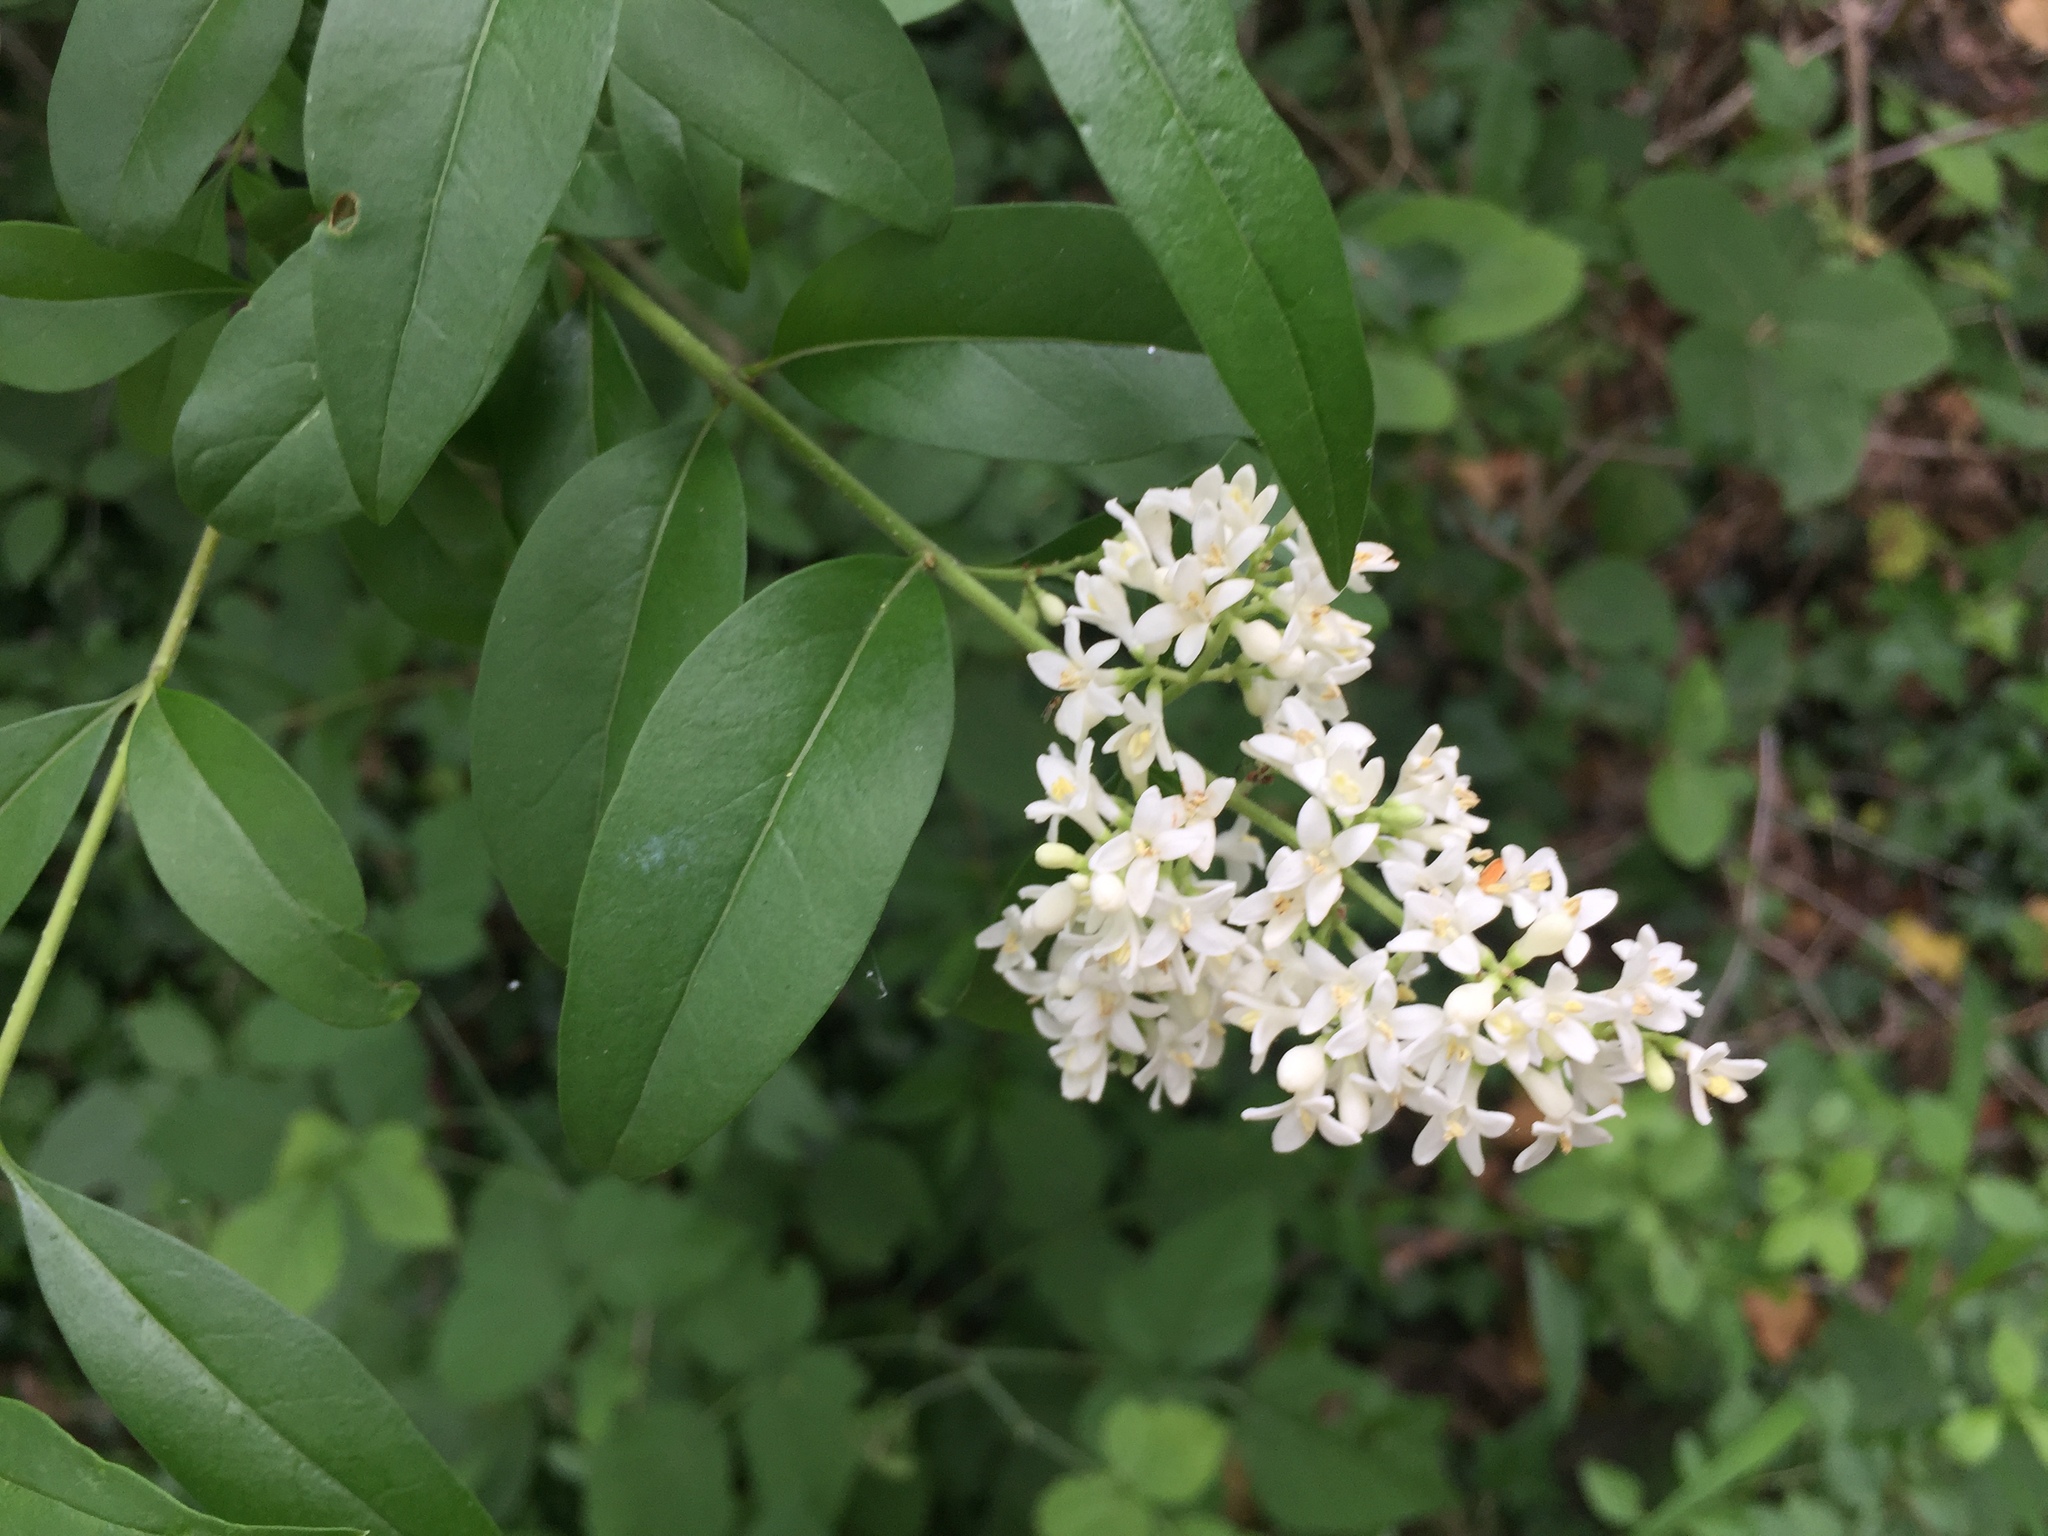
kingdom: Plantae
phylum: Tracheophyta
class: Magnoliopsida
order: Lamiales
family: Oleaceae
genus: Ligustrum
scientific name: Ligustrum vulgare
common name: Wild privet
